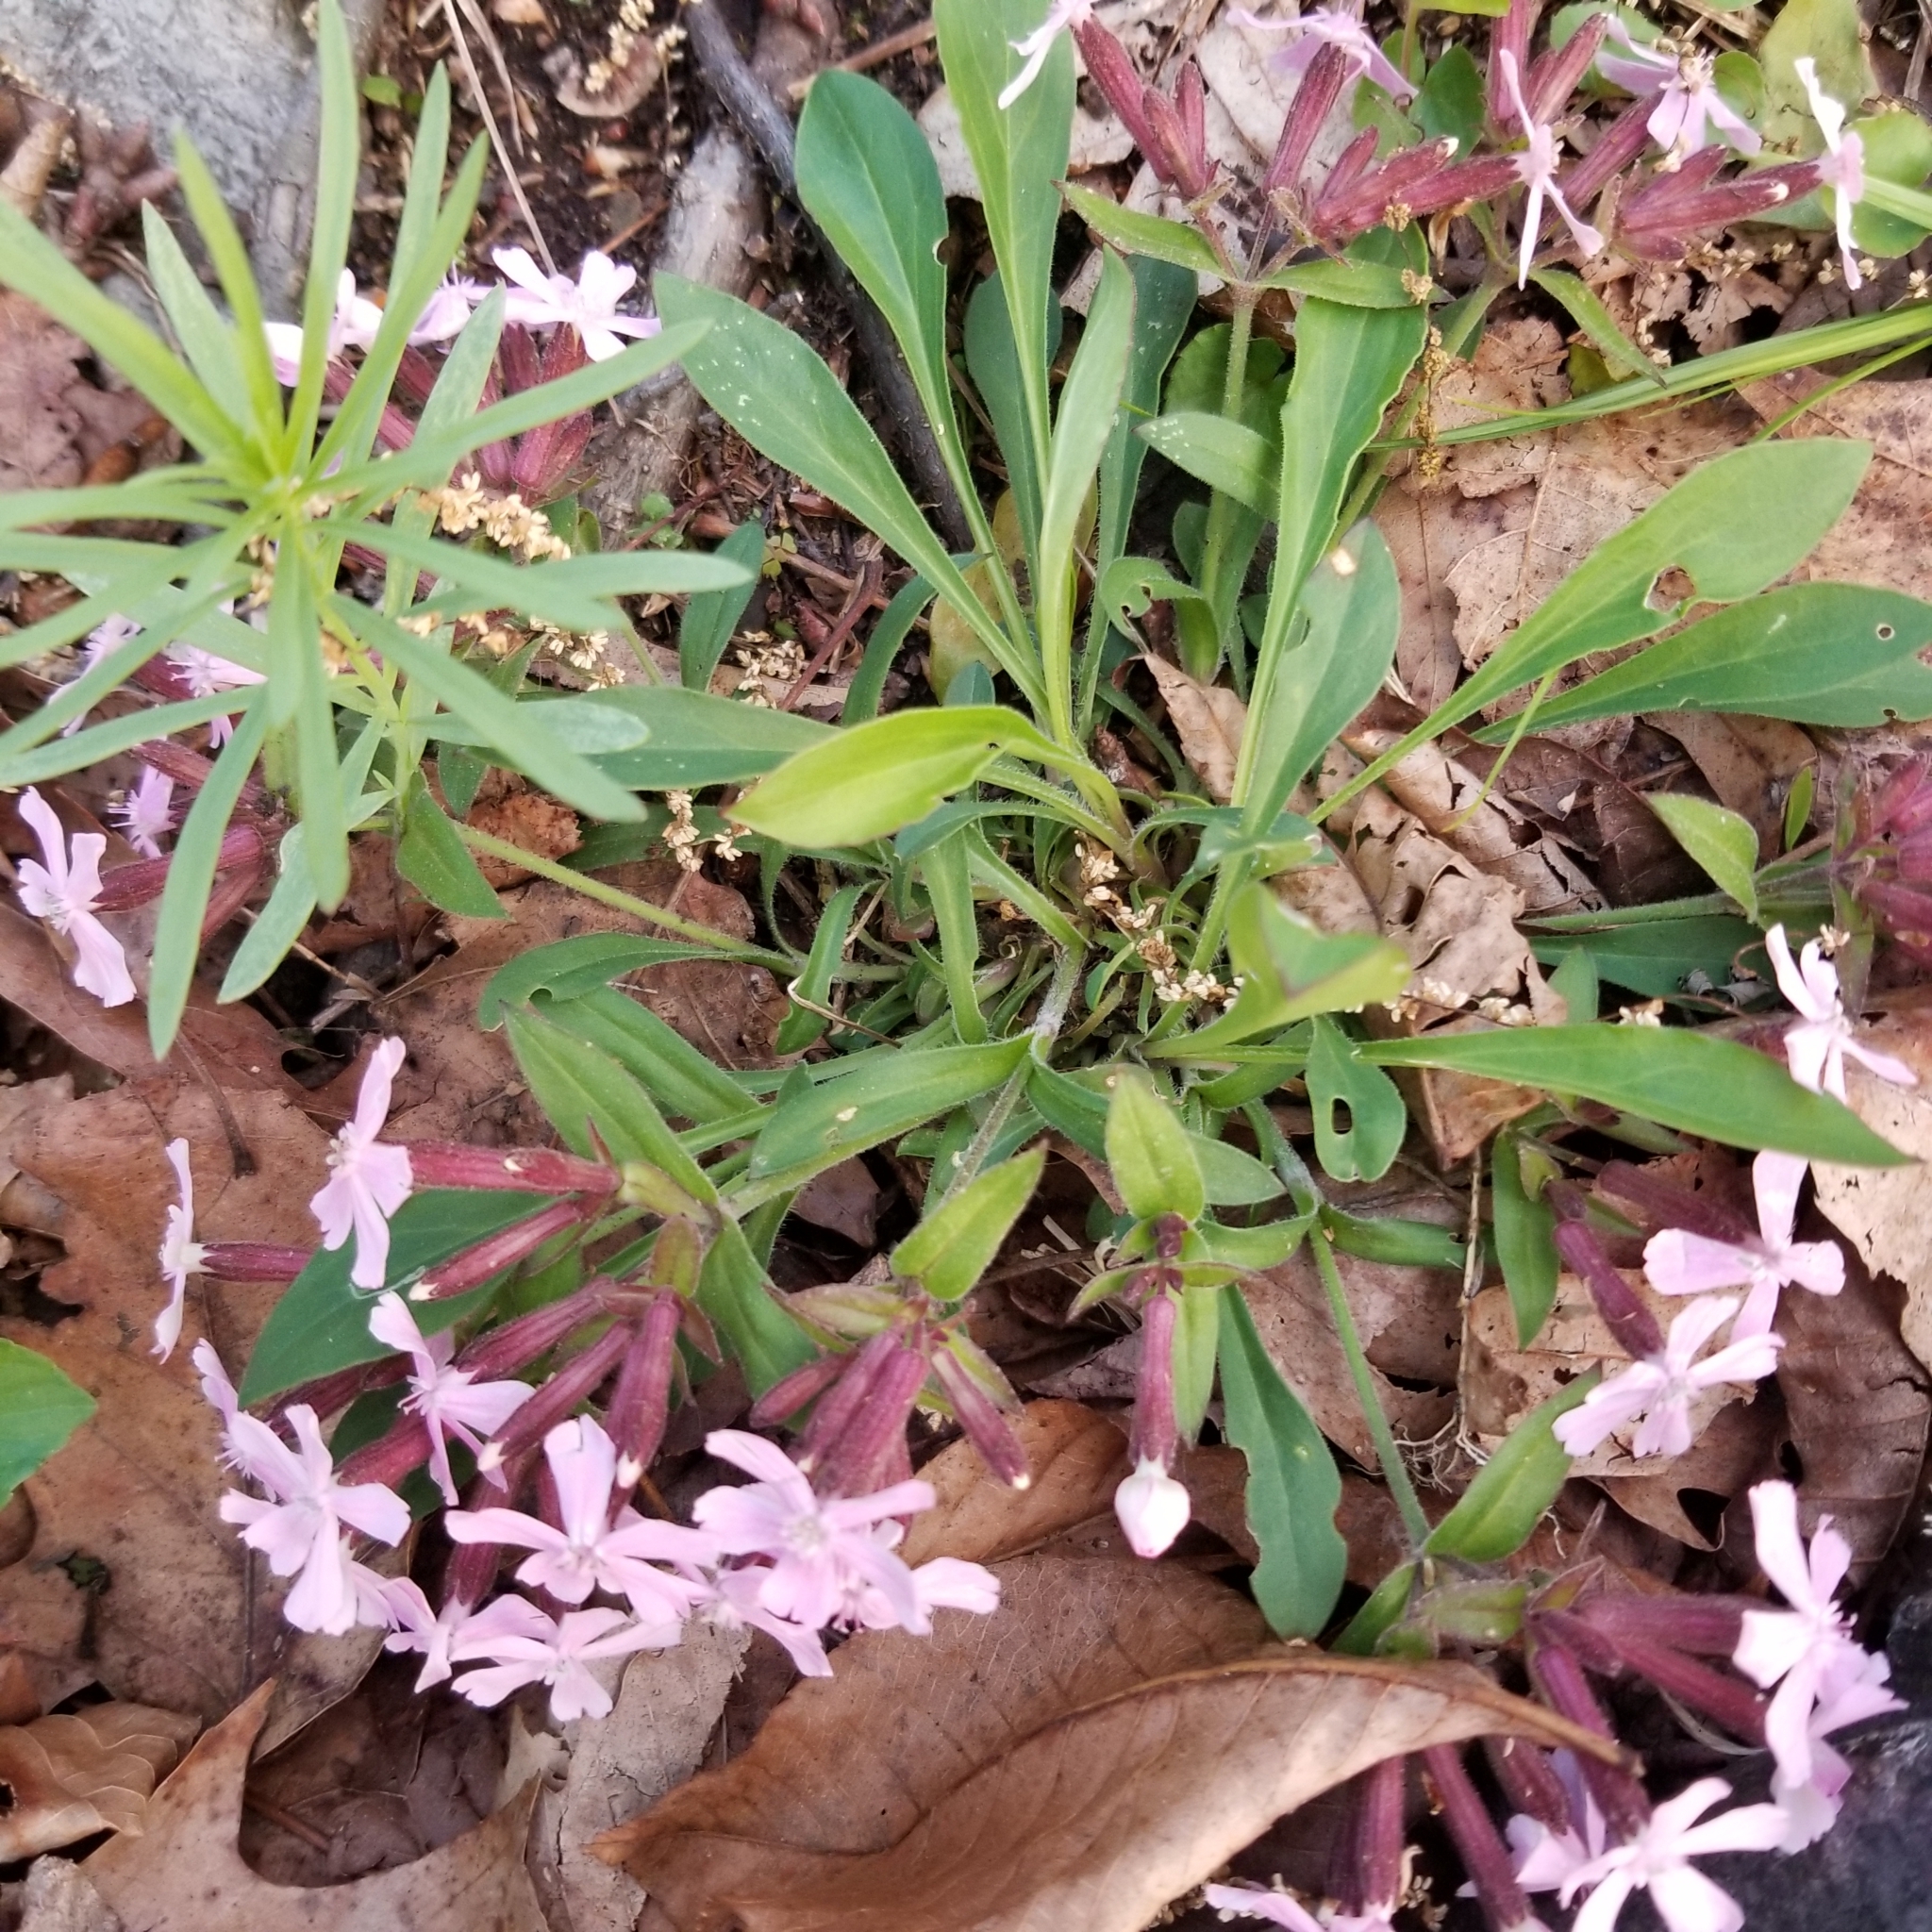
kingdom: Plantae
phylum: Tracheophyta
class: Magnoliopsida
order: Caryophyllales
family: Caryophyllaceae
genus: Silene
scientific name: Silene caroliniana
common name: Sticky catchfly
